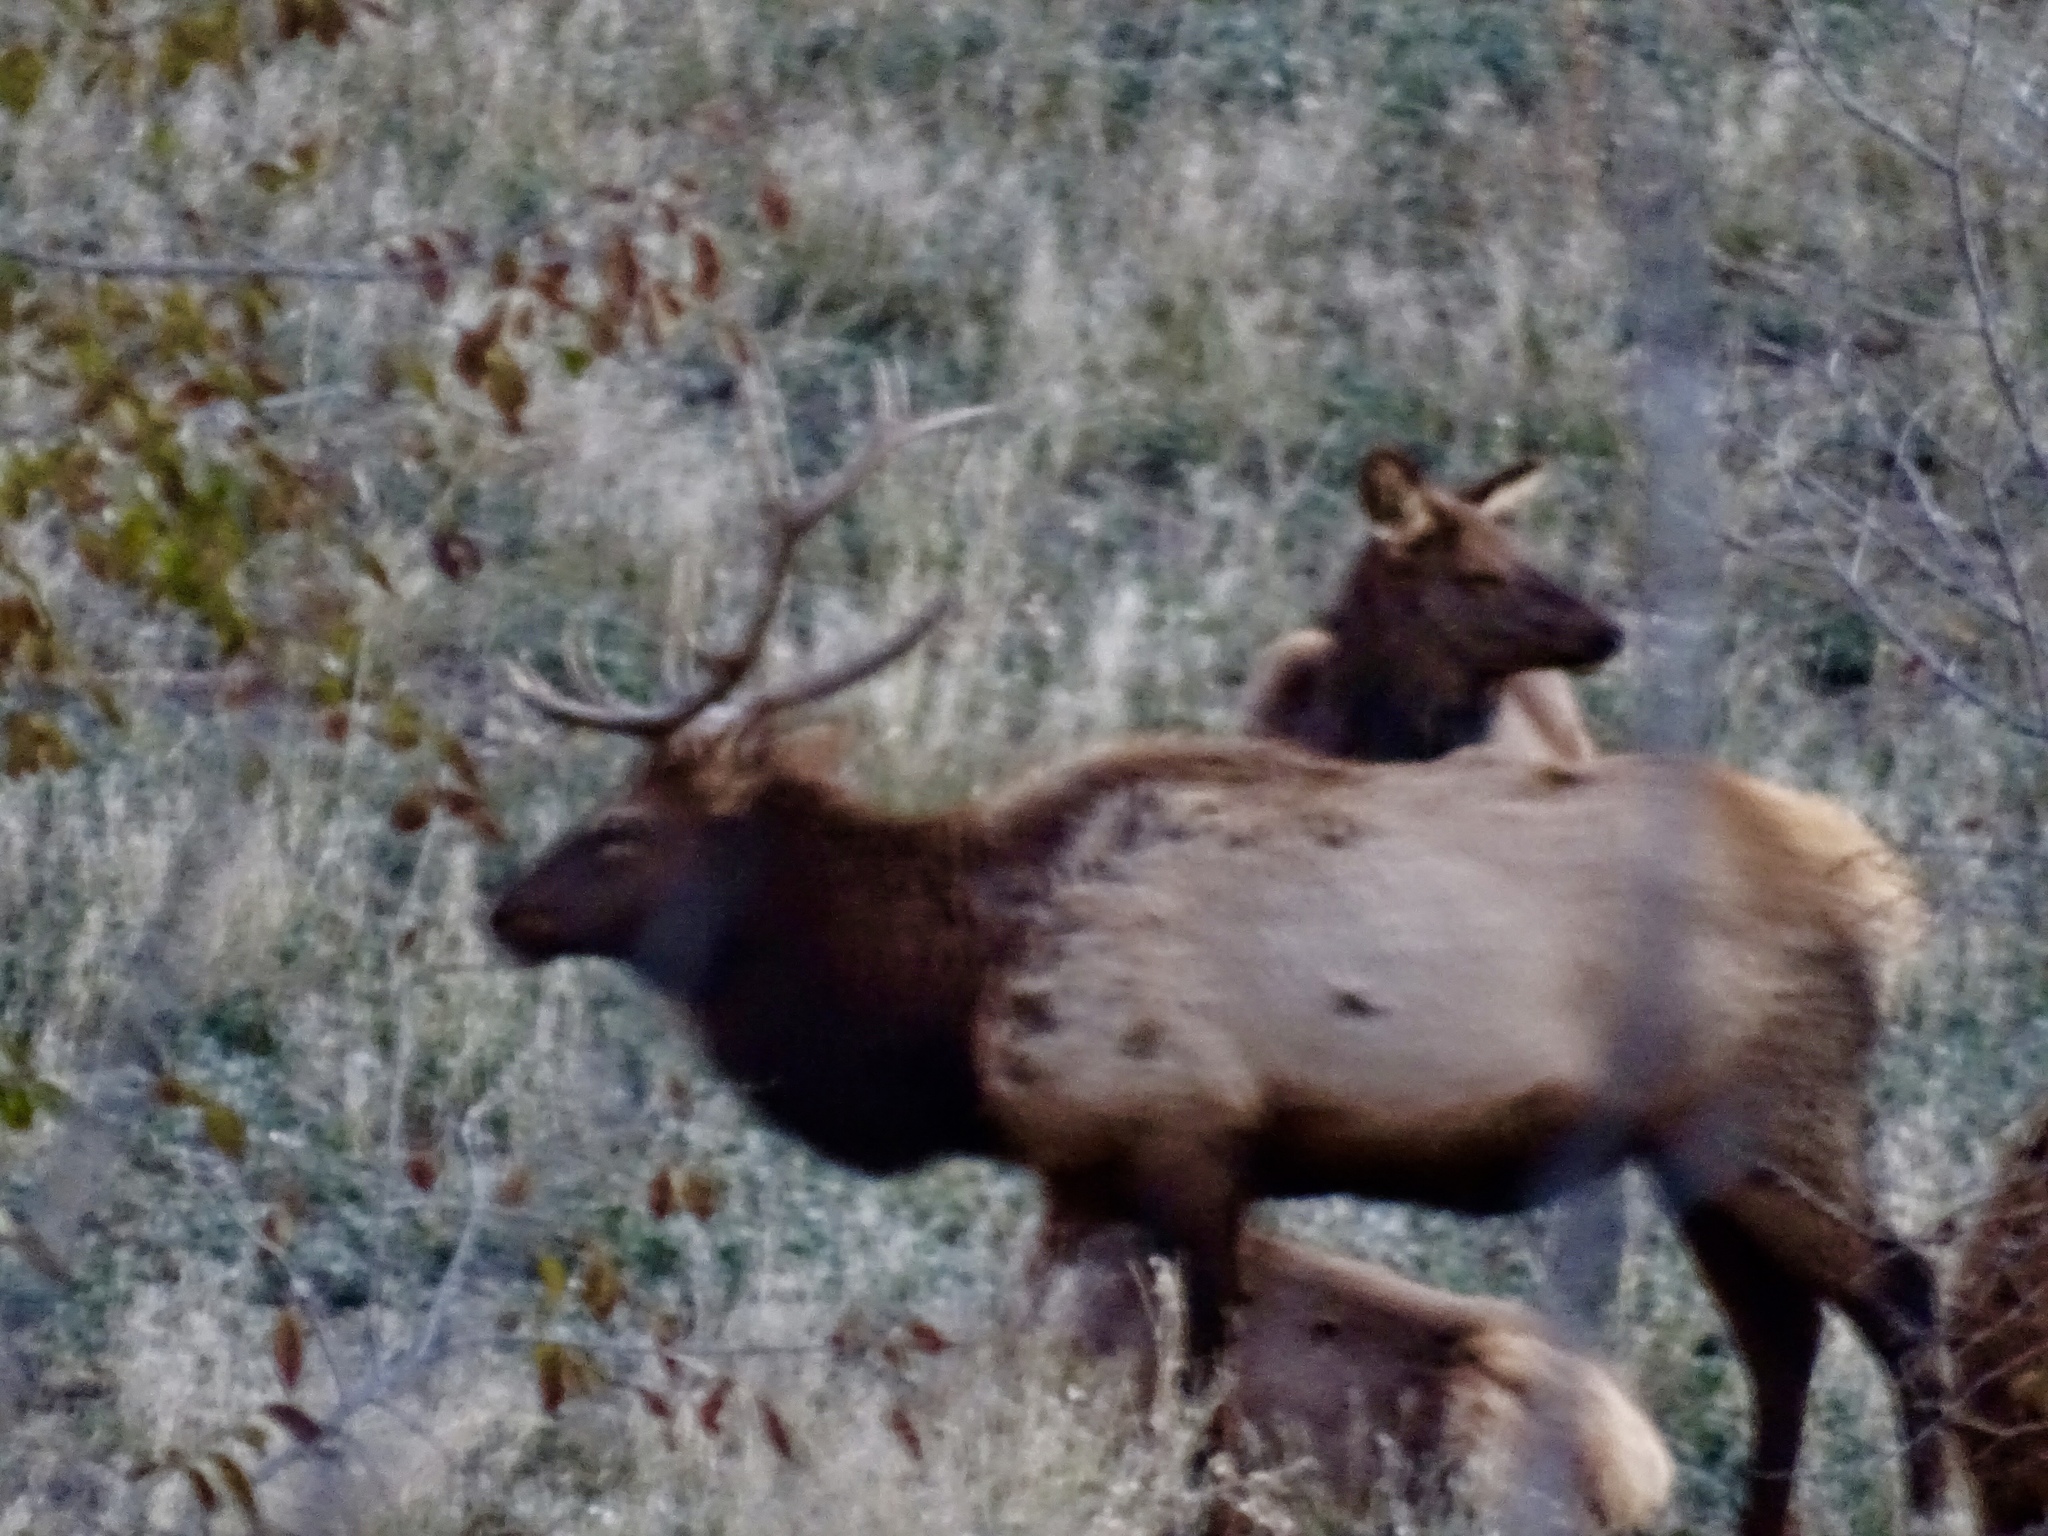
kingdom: Animalia
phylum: Chordata
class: Mammalia
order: Artiodactyla
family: Cervidae
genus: Cervus
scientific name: Cervus elaphus
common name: Red deer
